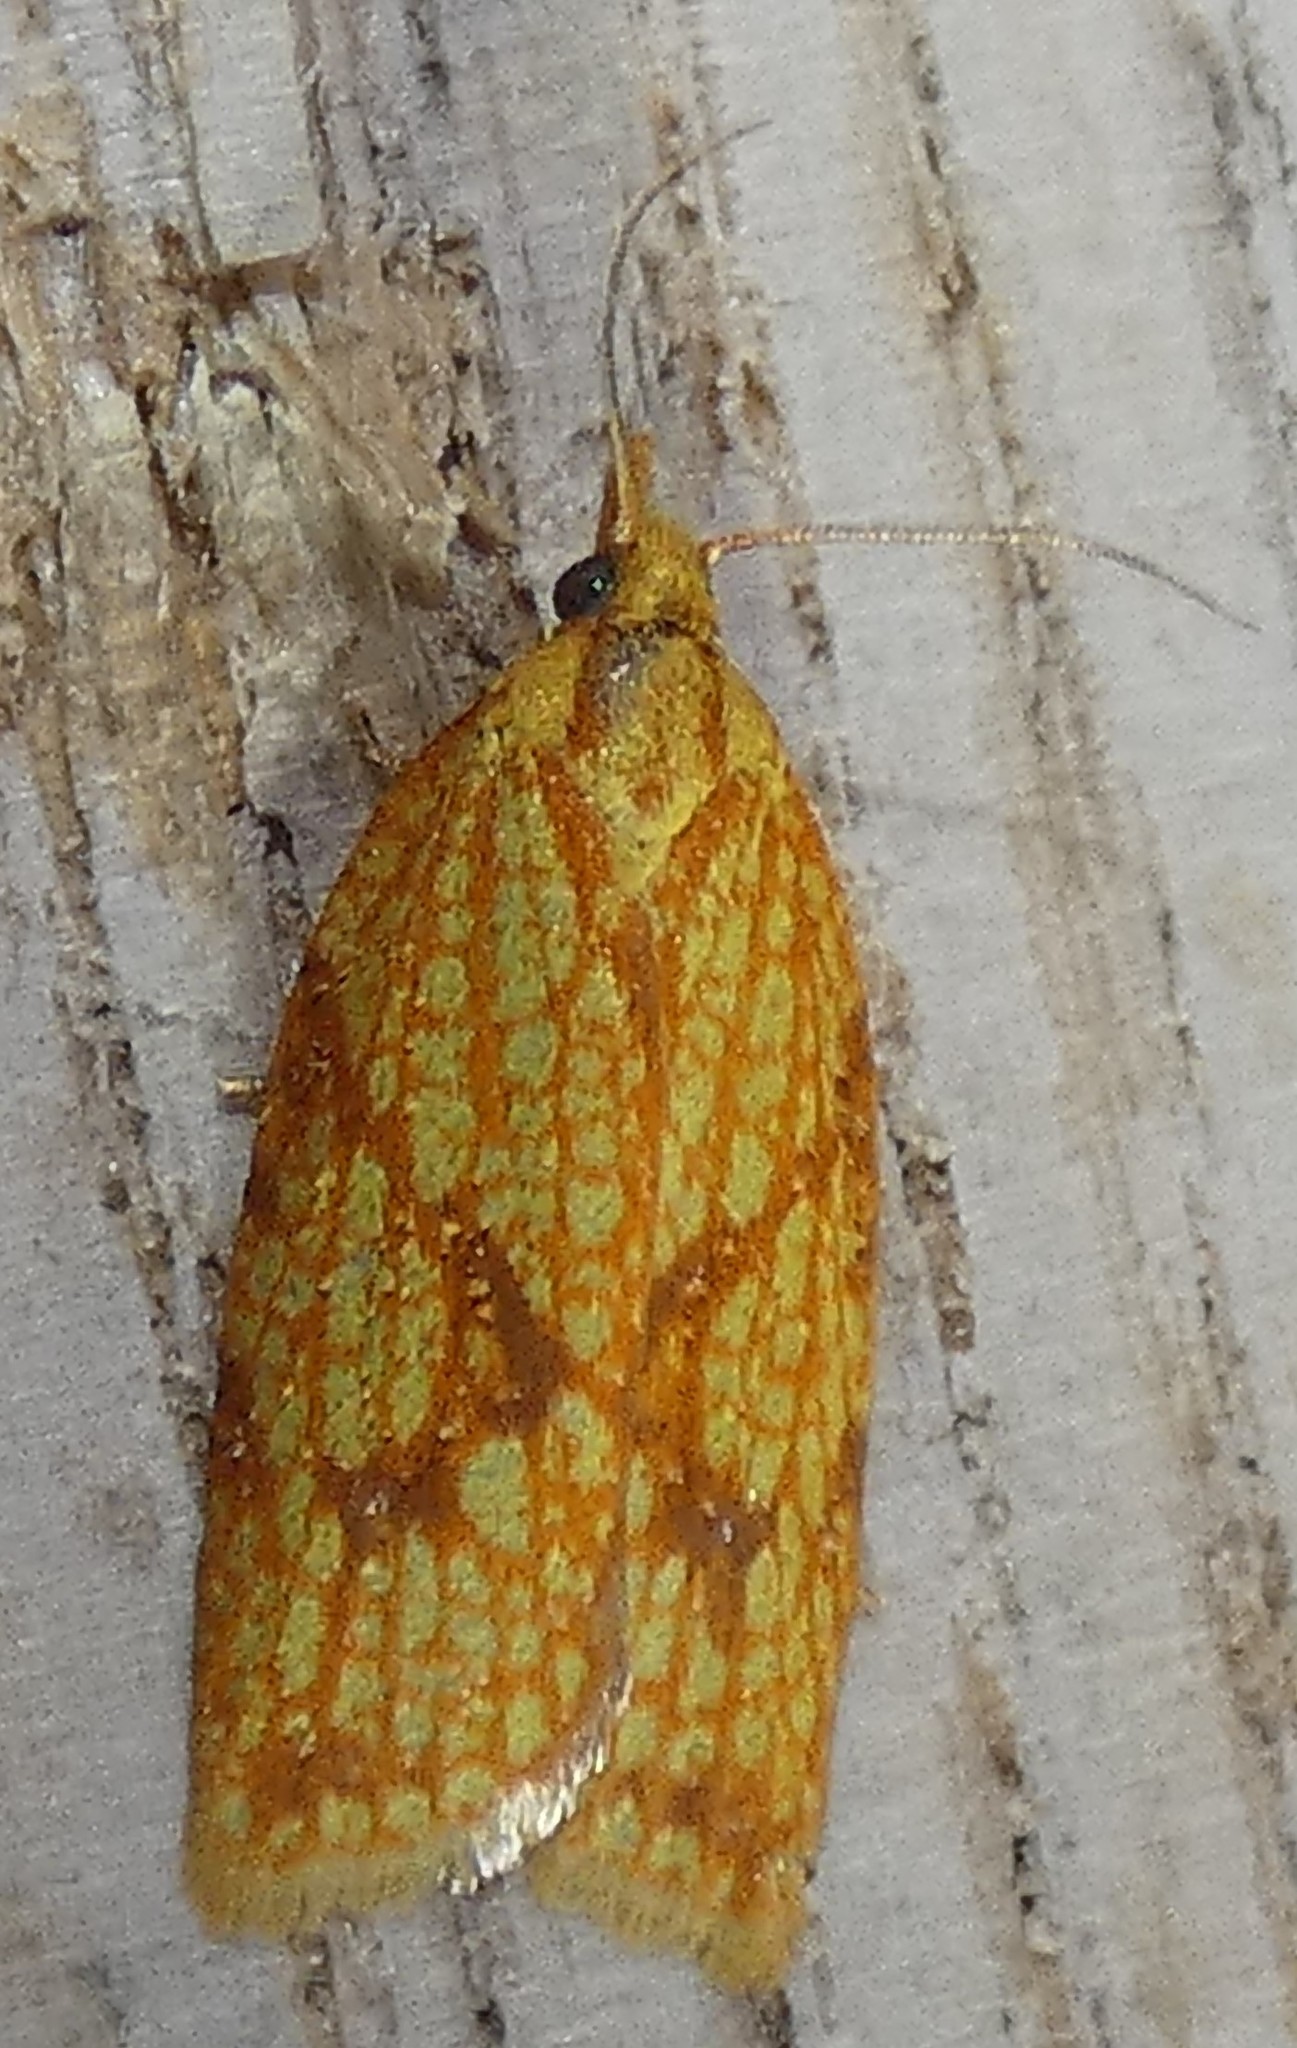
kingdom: Animalia
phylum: Arthropoda
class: Insecta
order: Lepidoptera
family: Tortricidae
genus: Sparganothis
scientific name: Sparganothis sulfureana
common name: Sparganothis fruitworm moth
